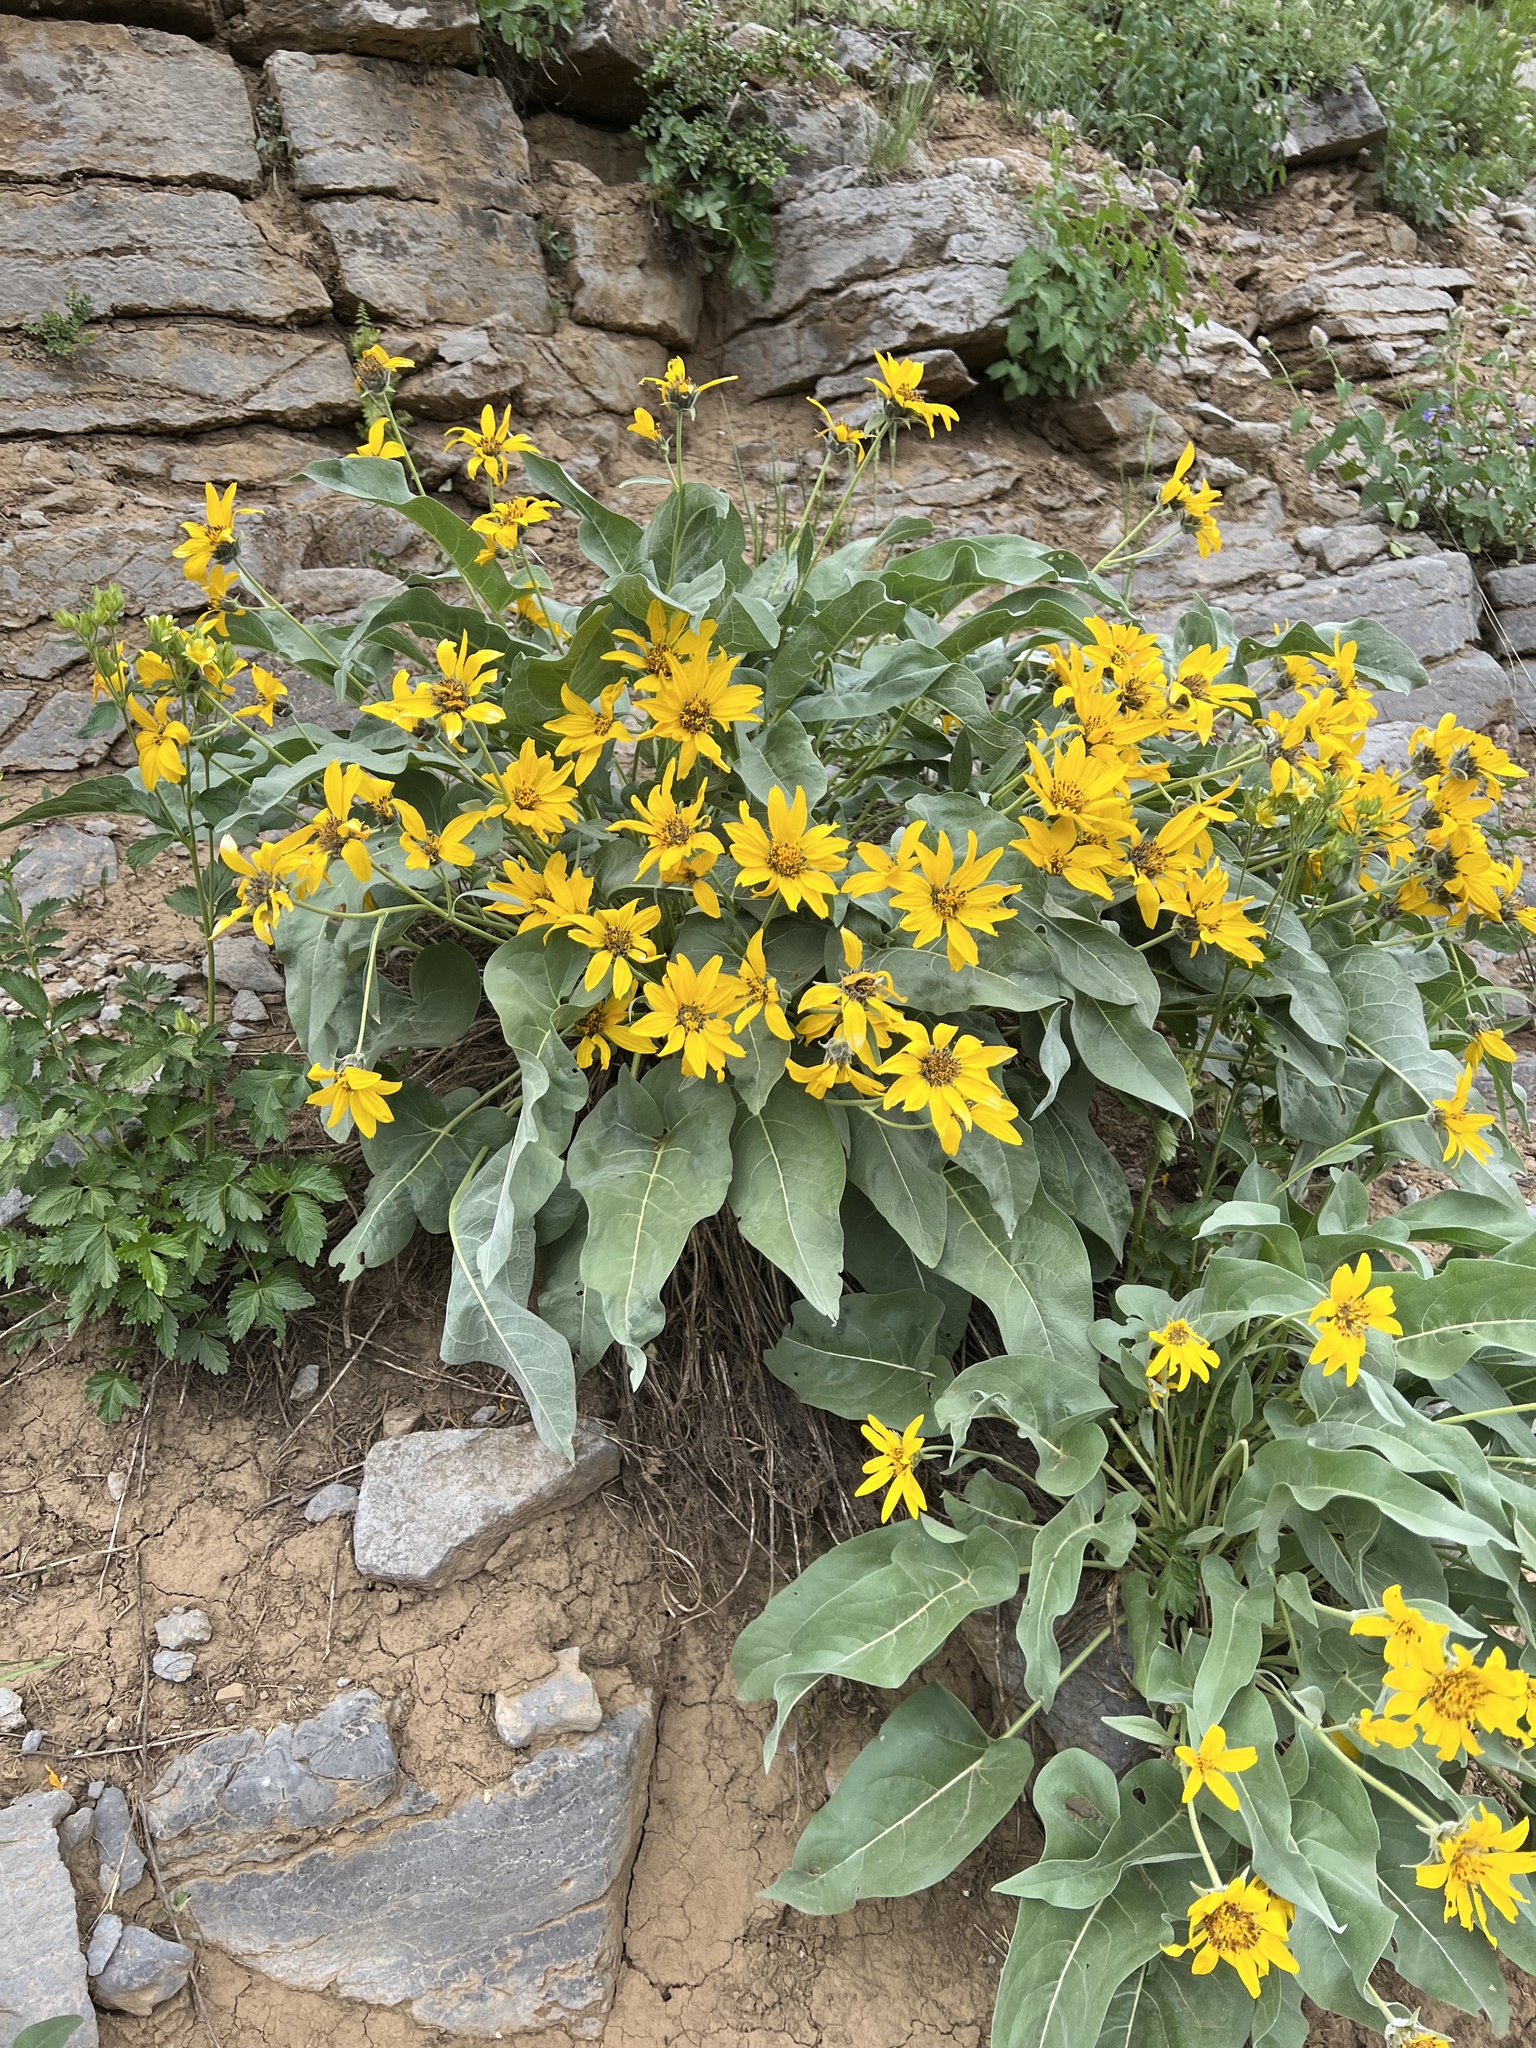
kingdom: Plantae
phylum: Tracheophyta
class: Magnoliopsida
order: Asterales
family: Asteraceae
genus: Wyethia
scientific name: Wyethia sagittata
